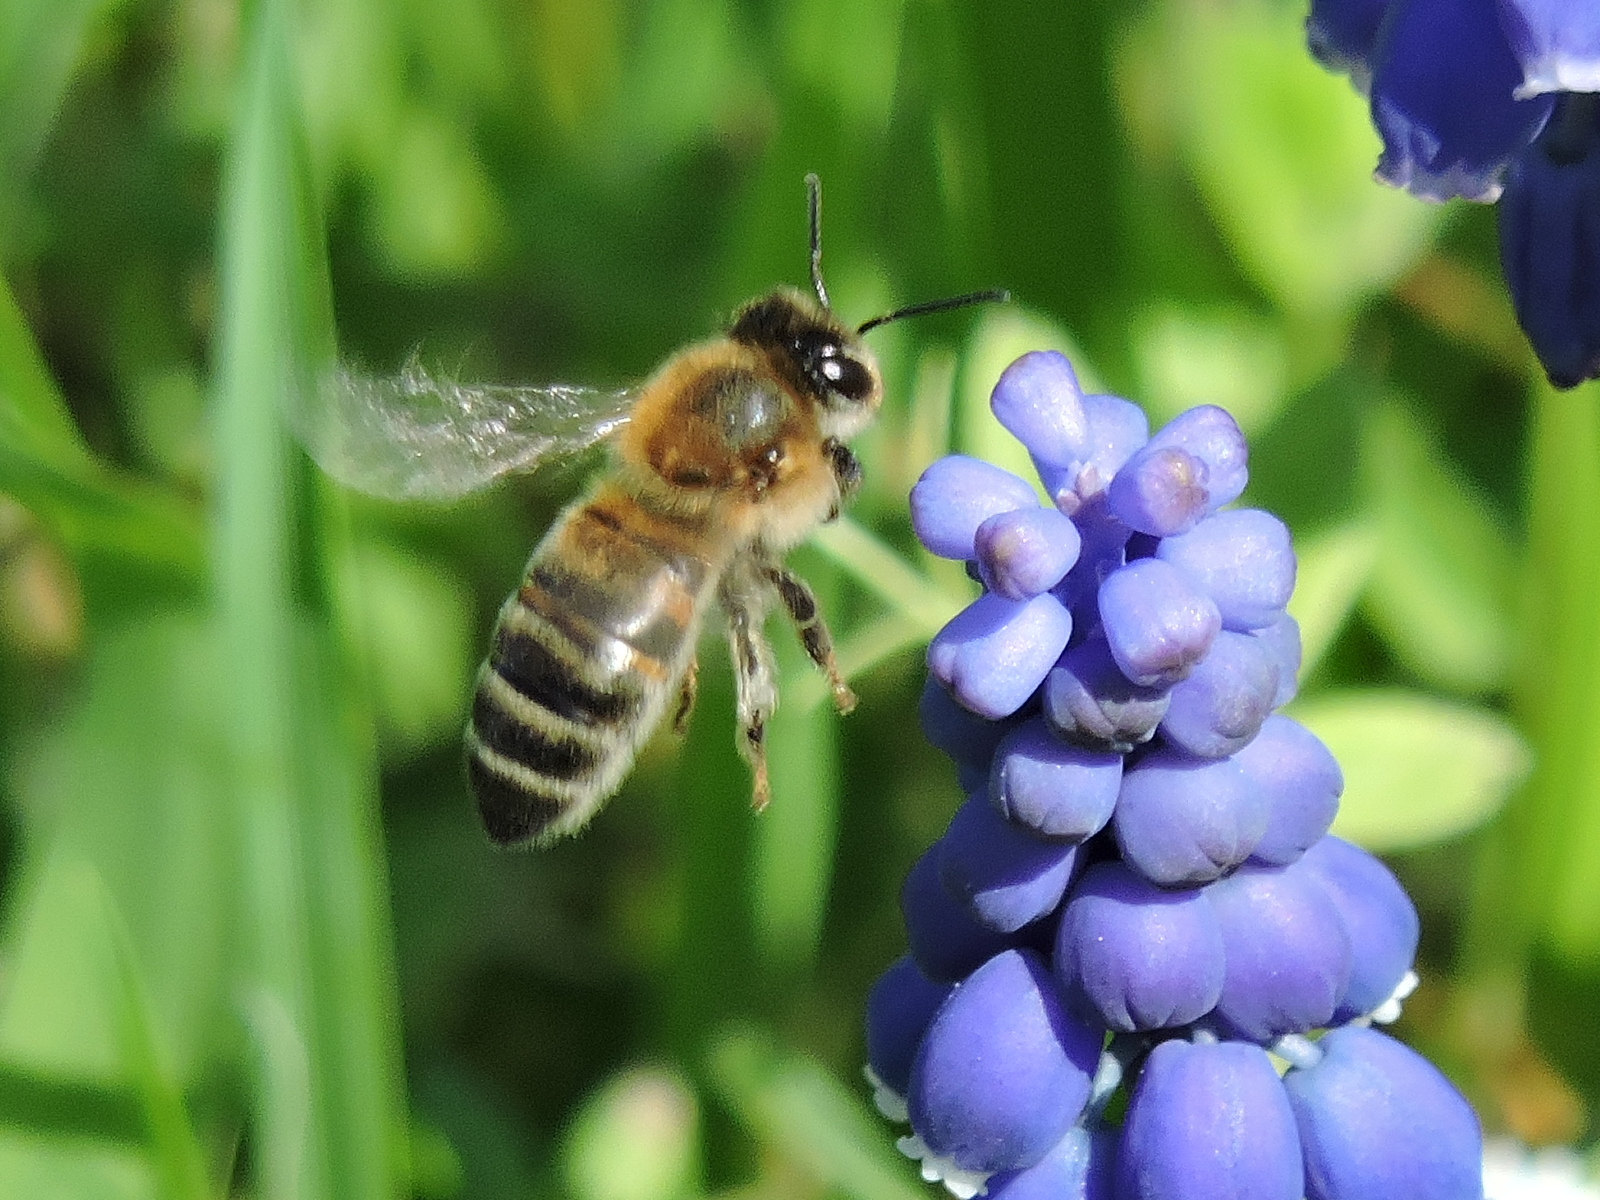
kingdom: Animalia
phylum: Arthropoda
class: Insecta
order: Hymenoptera
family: Apidae
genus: Apis
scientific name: Apis mellifera
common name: Honey bee
